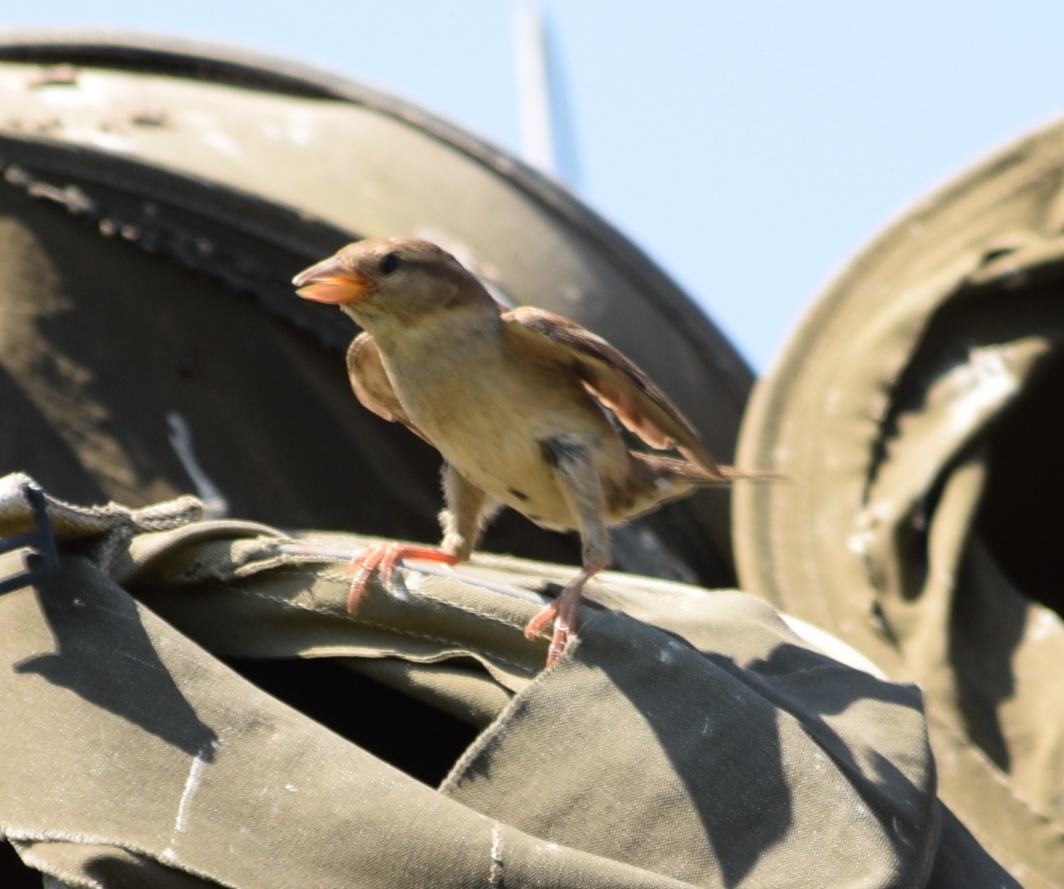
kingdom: Animalia
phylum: Chordata
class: Aves
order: Passeriformes
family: Passeridae
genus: Passer
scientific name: Passer domesticus
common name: House sparrow
